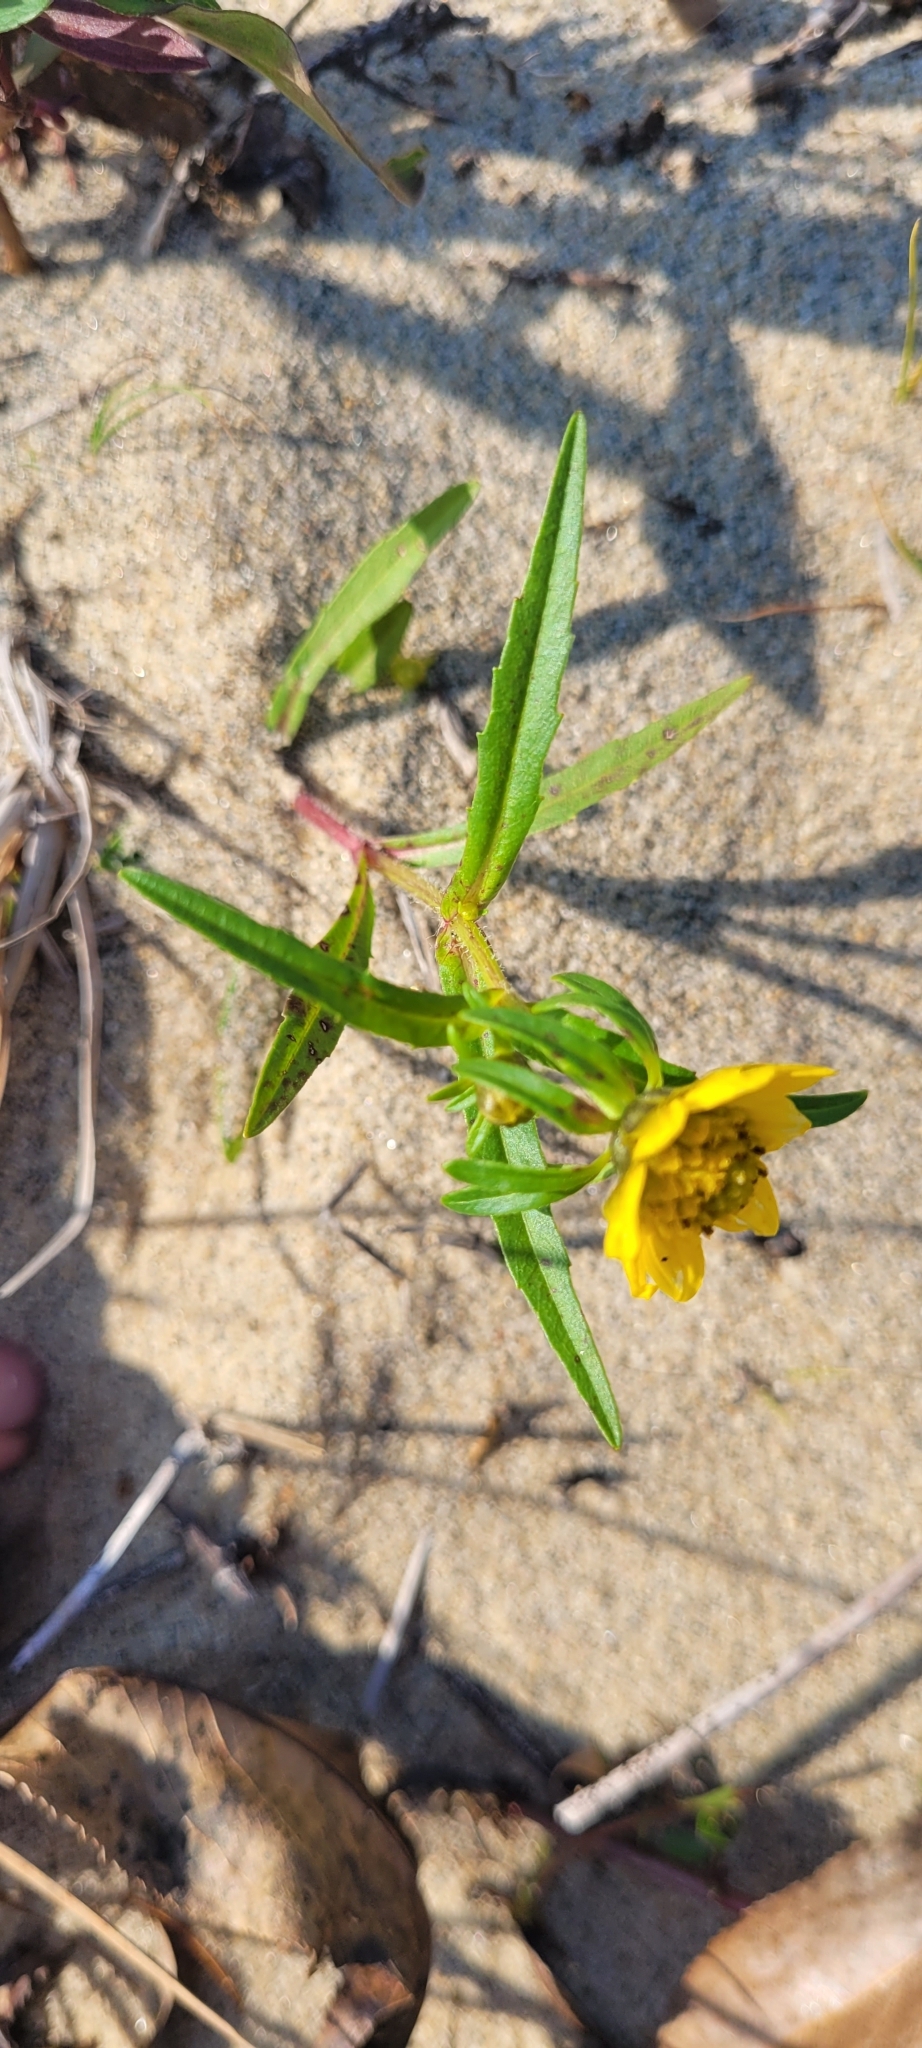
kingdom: Plantae
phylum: Tracheophyta
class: Magnoliopsida
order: Asterales
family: Asteraceae
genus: Bidens
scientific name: Bidens cernua
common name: Nodding bur-marigold
